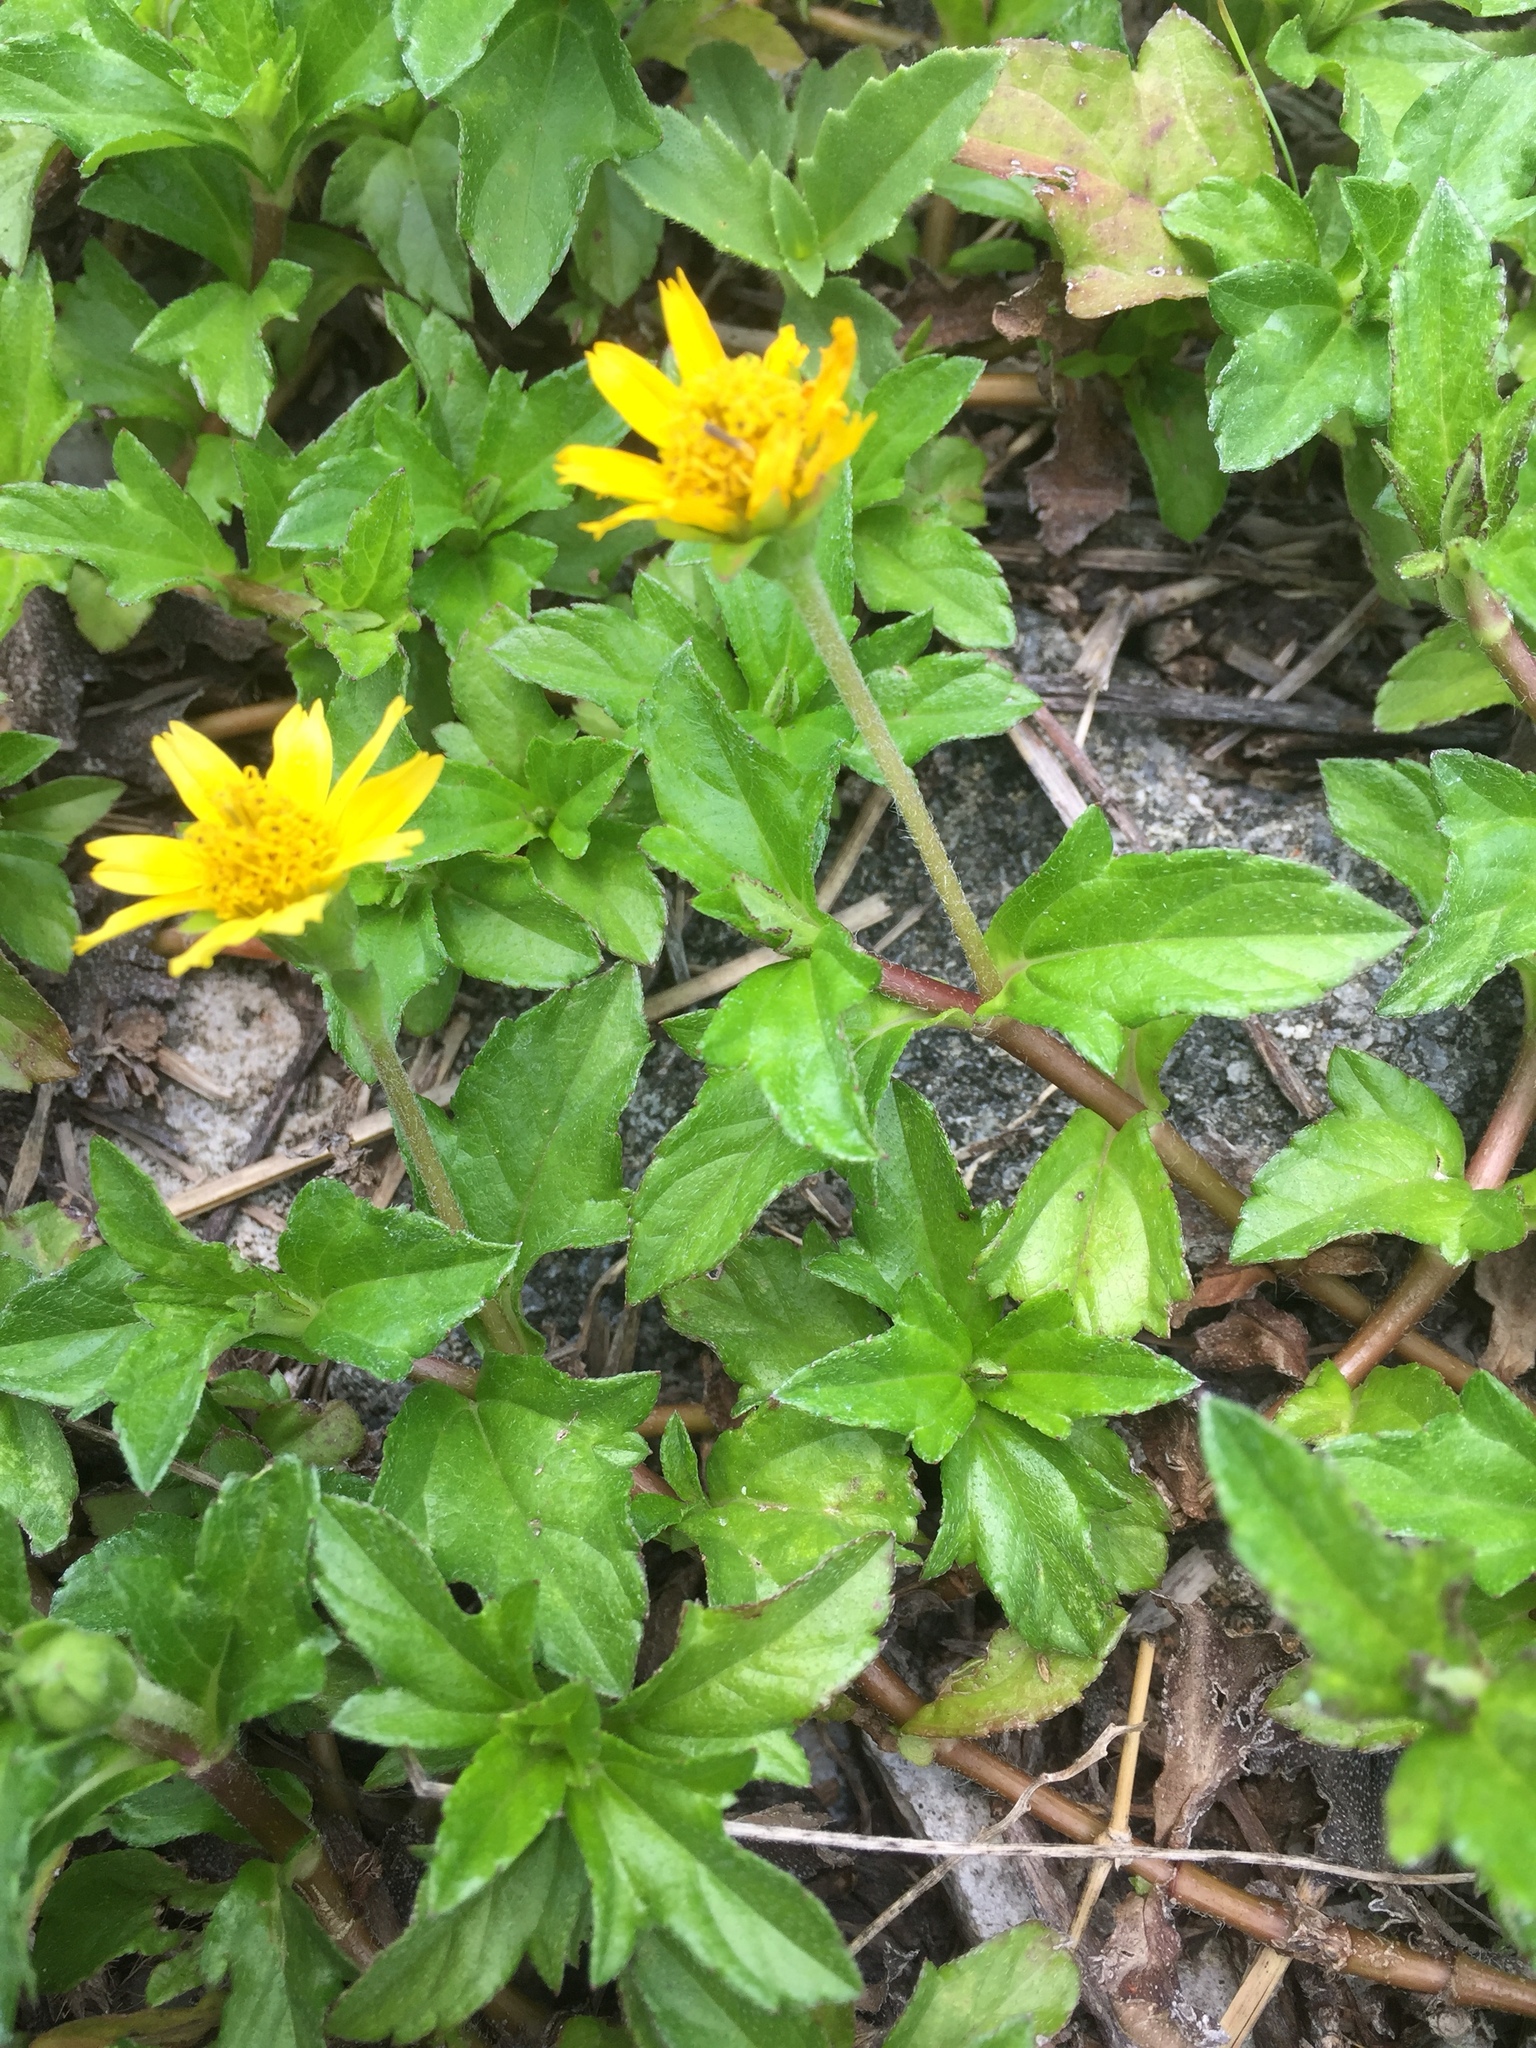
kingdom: Plantae
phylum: Tracheophyta
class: Magnoliopsida
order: Asterales
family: Asteraceae
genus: Sphagneticola
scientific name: Sphagneticola trilobata
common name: Bay biscayne creeping-oxeye
